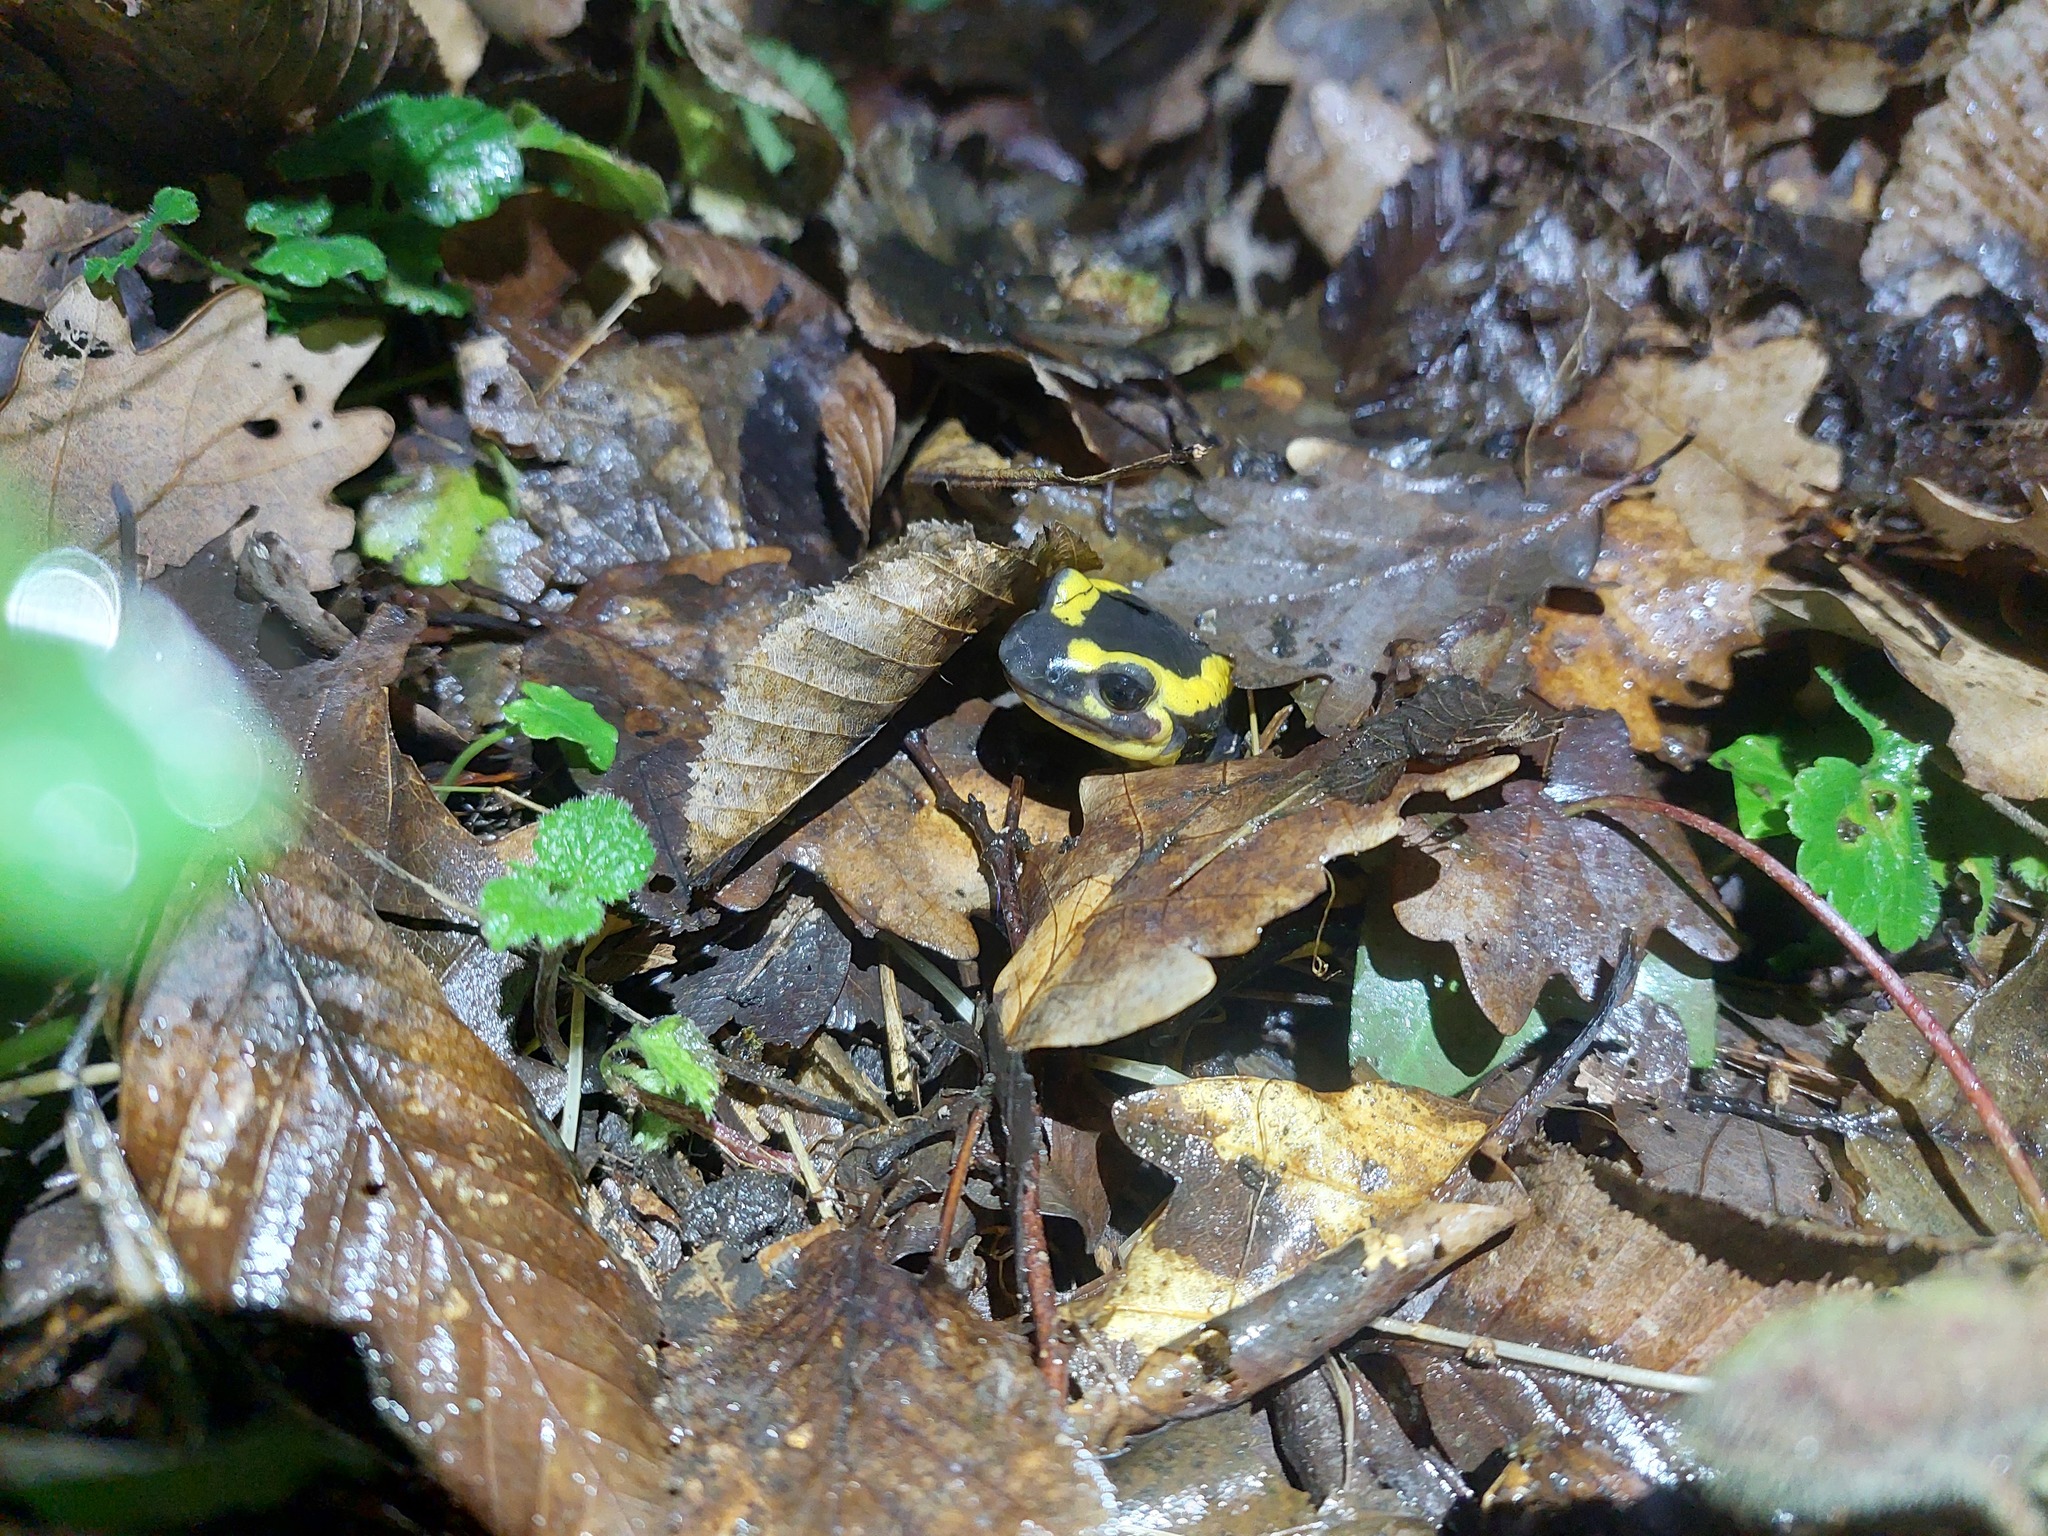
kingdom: Animalia
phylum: Chordata
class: Amphibia
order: Caudata
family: Salamandridae
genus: Salamandra
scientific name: Salamandra salamandra
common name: Fire salamander
